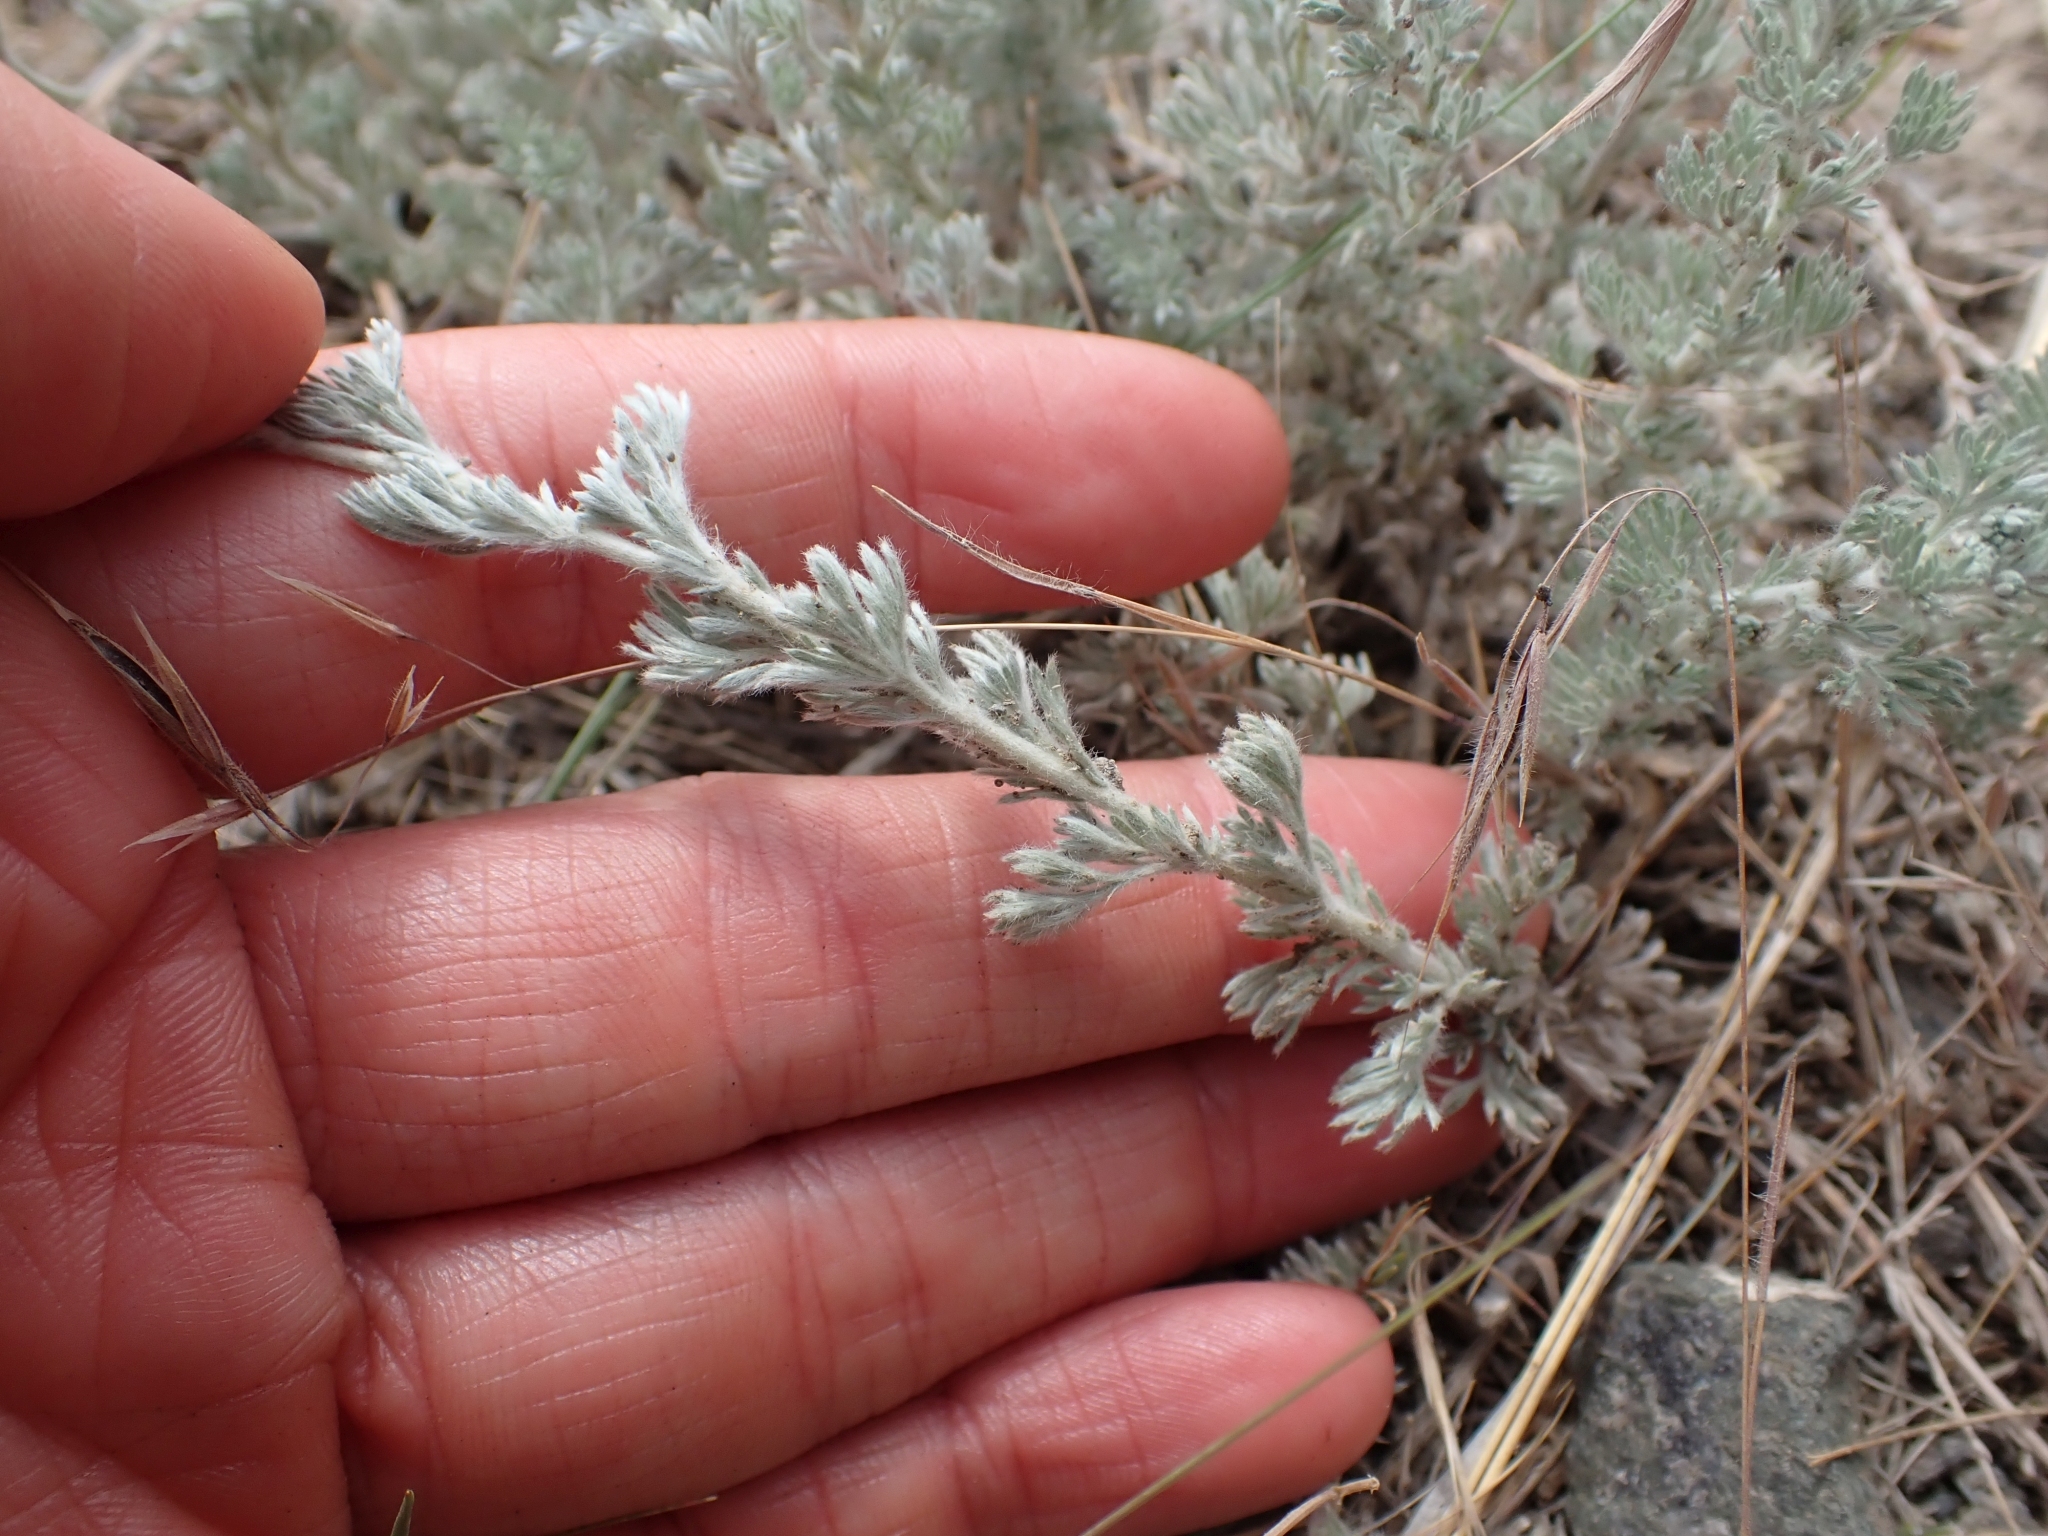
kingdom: Plantae
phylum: Tracheophyta
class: Magnoliopsida
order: Asterales
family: Asteraceae
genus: Artemisia
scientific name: Artemisia frigida
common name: Prairie sagewort
